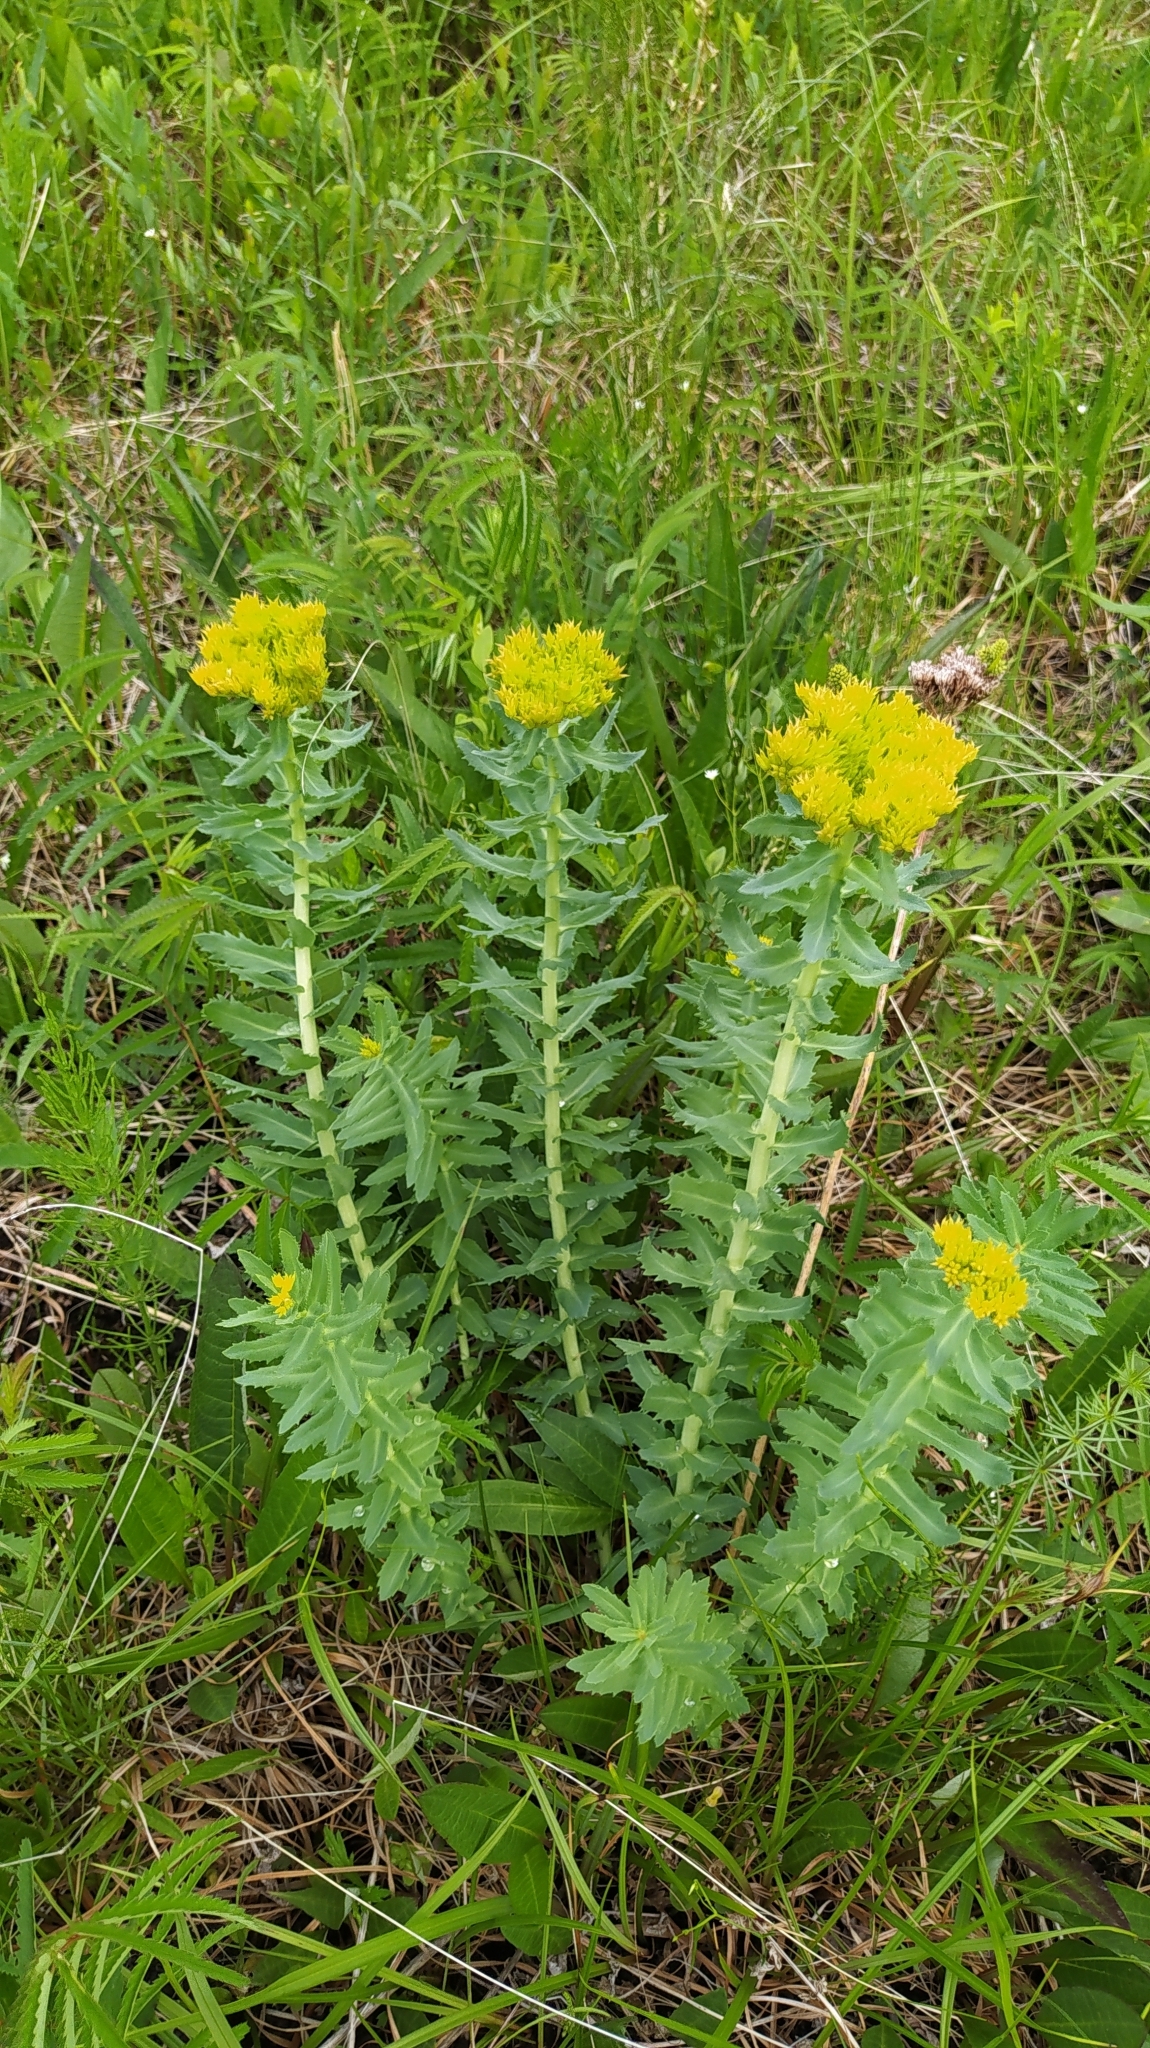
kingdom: Plantae
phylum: Tracheophyta
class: Magnoliopsida
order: Saxifragales
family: Crassulaceae
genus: Rhodiola
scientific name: Rhodiola rosea
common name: Roseroot
